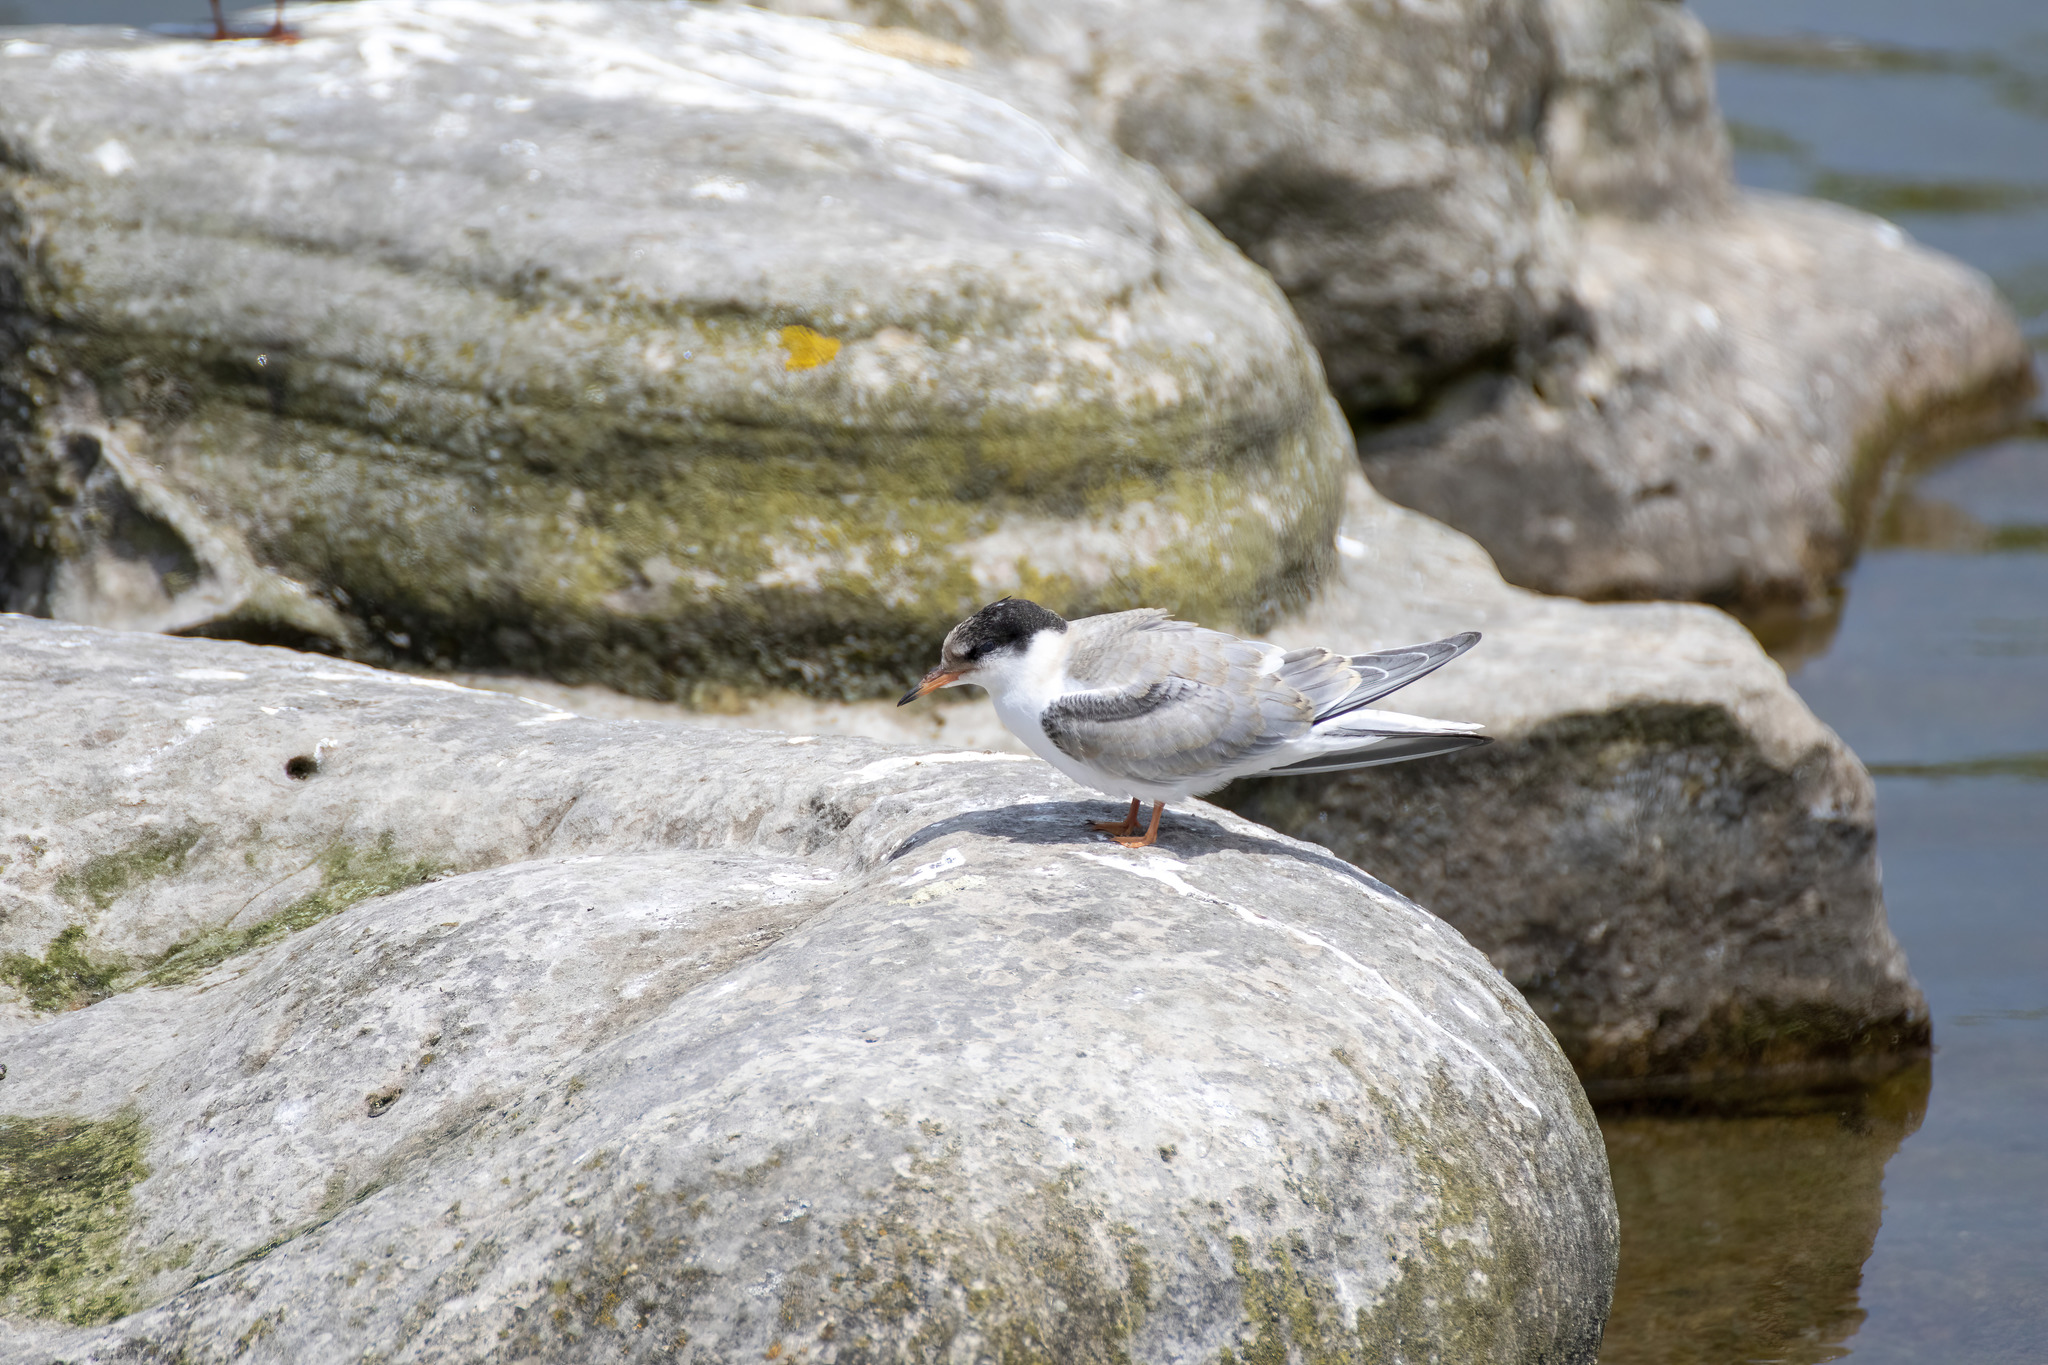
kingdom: Animalia
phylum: Chordata
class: Aves
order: Charadriiformes
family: Laridae
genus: Sterna
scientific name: Sterna hirundo
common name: Common tern
